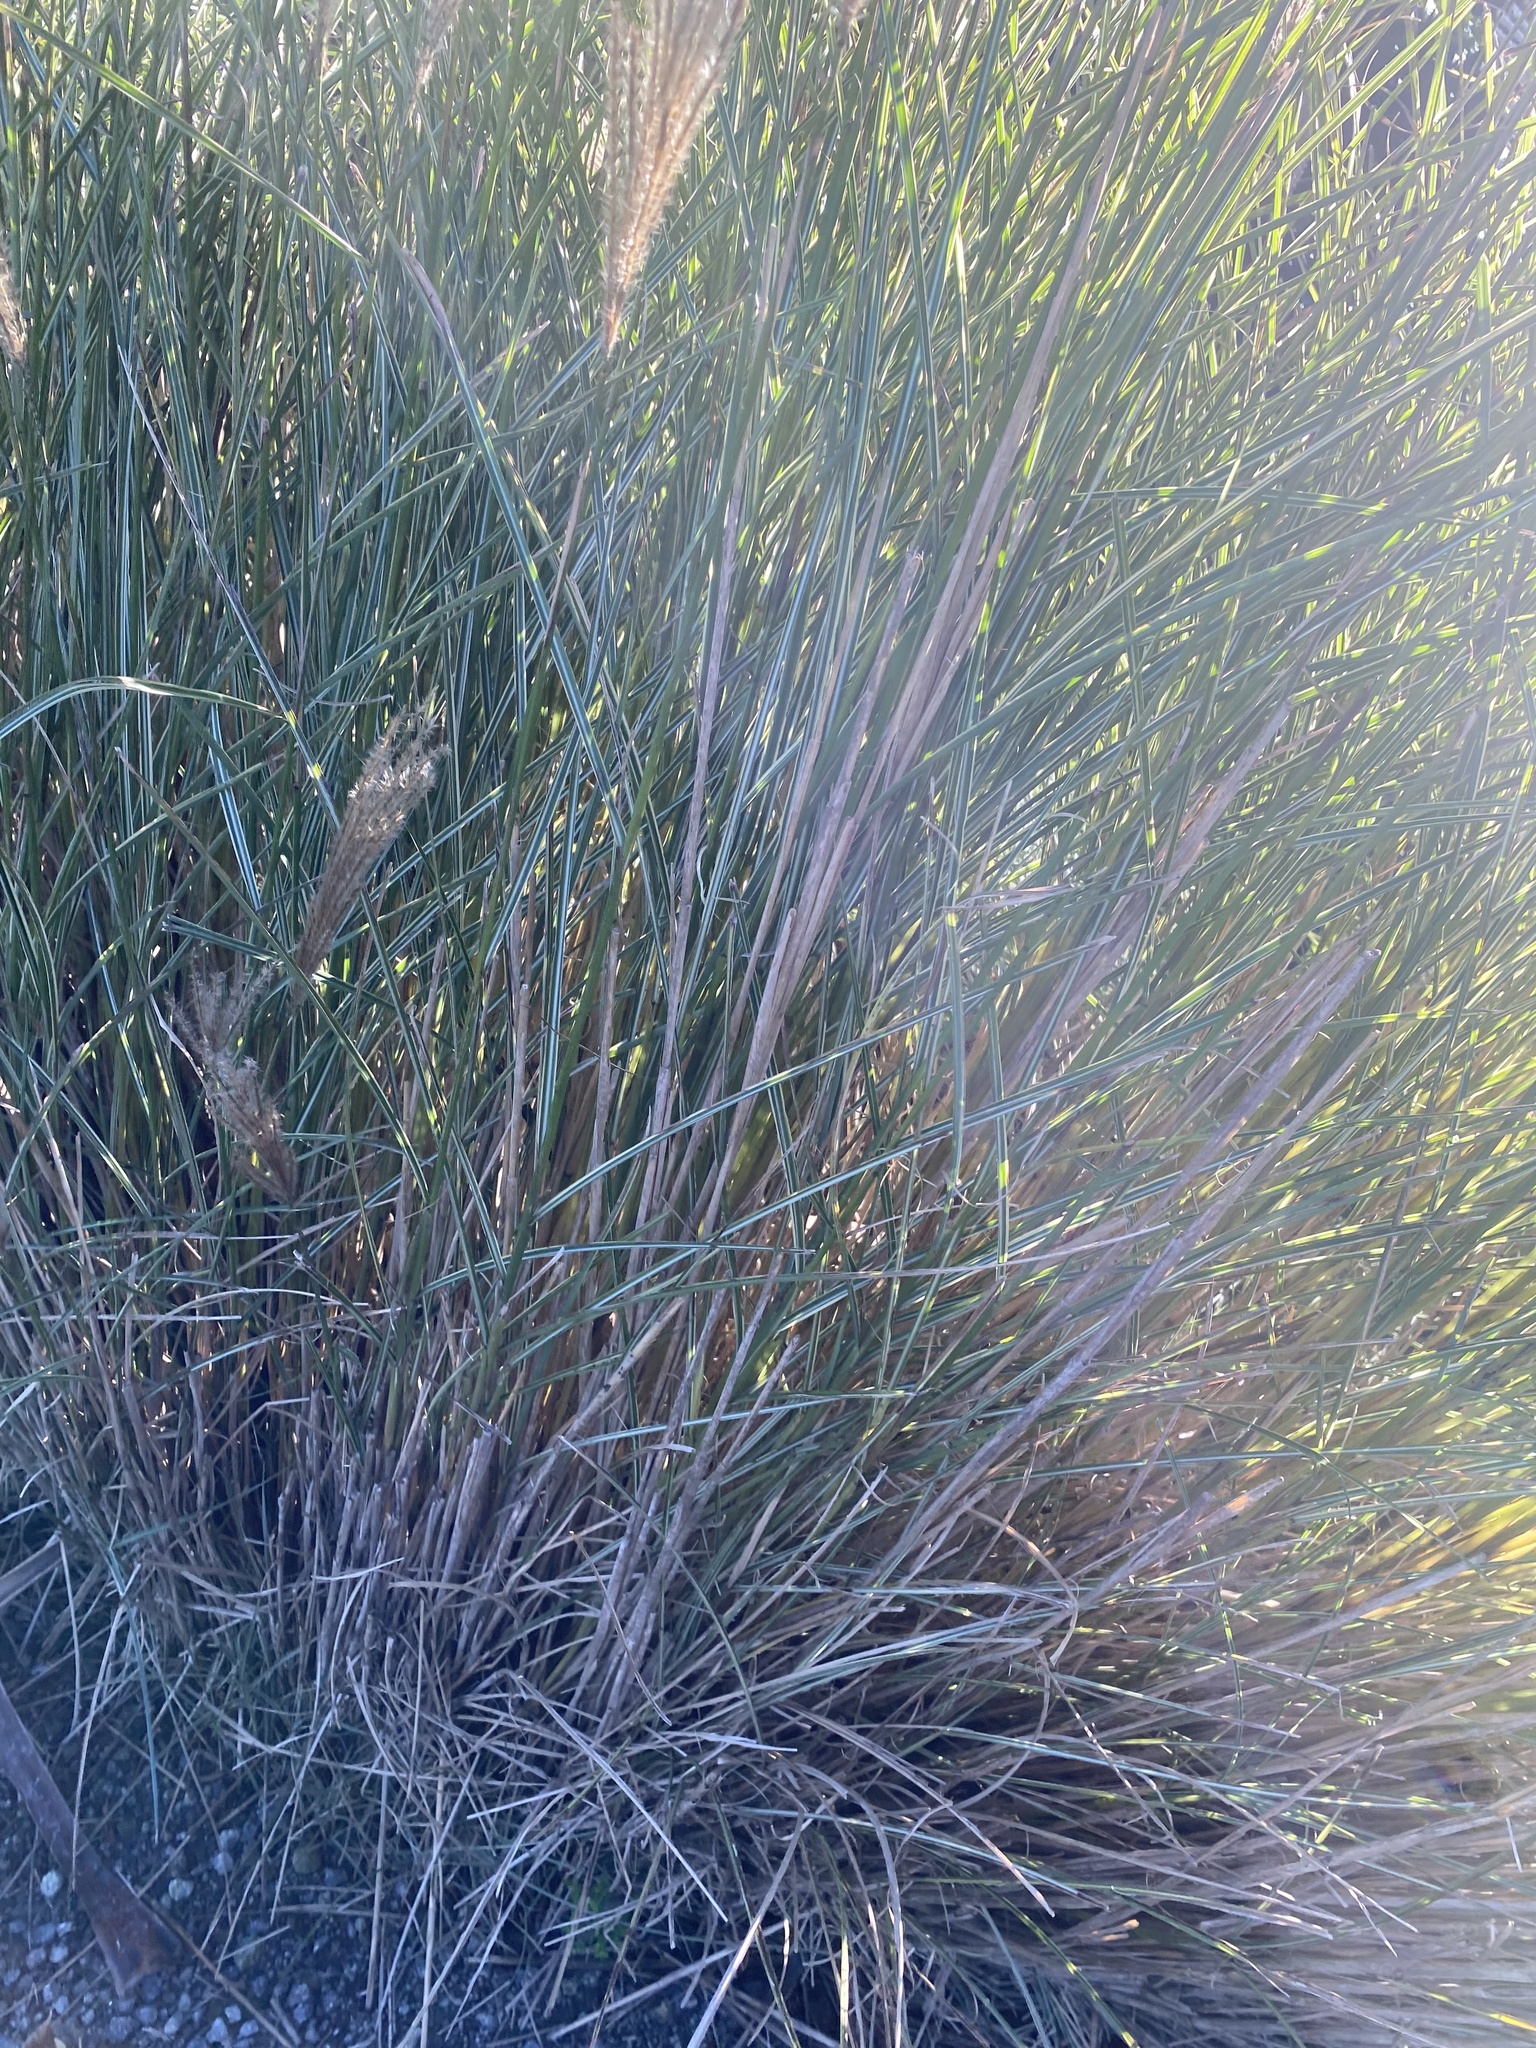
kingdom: Plantae
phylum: Tracheophyta
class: Liliopsida
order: Poales
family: Poaceae
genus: Miscanthus
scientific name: Miscanthus sinensis
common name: Chinese silvergrass
